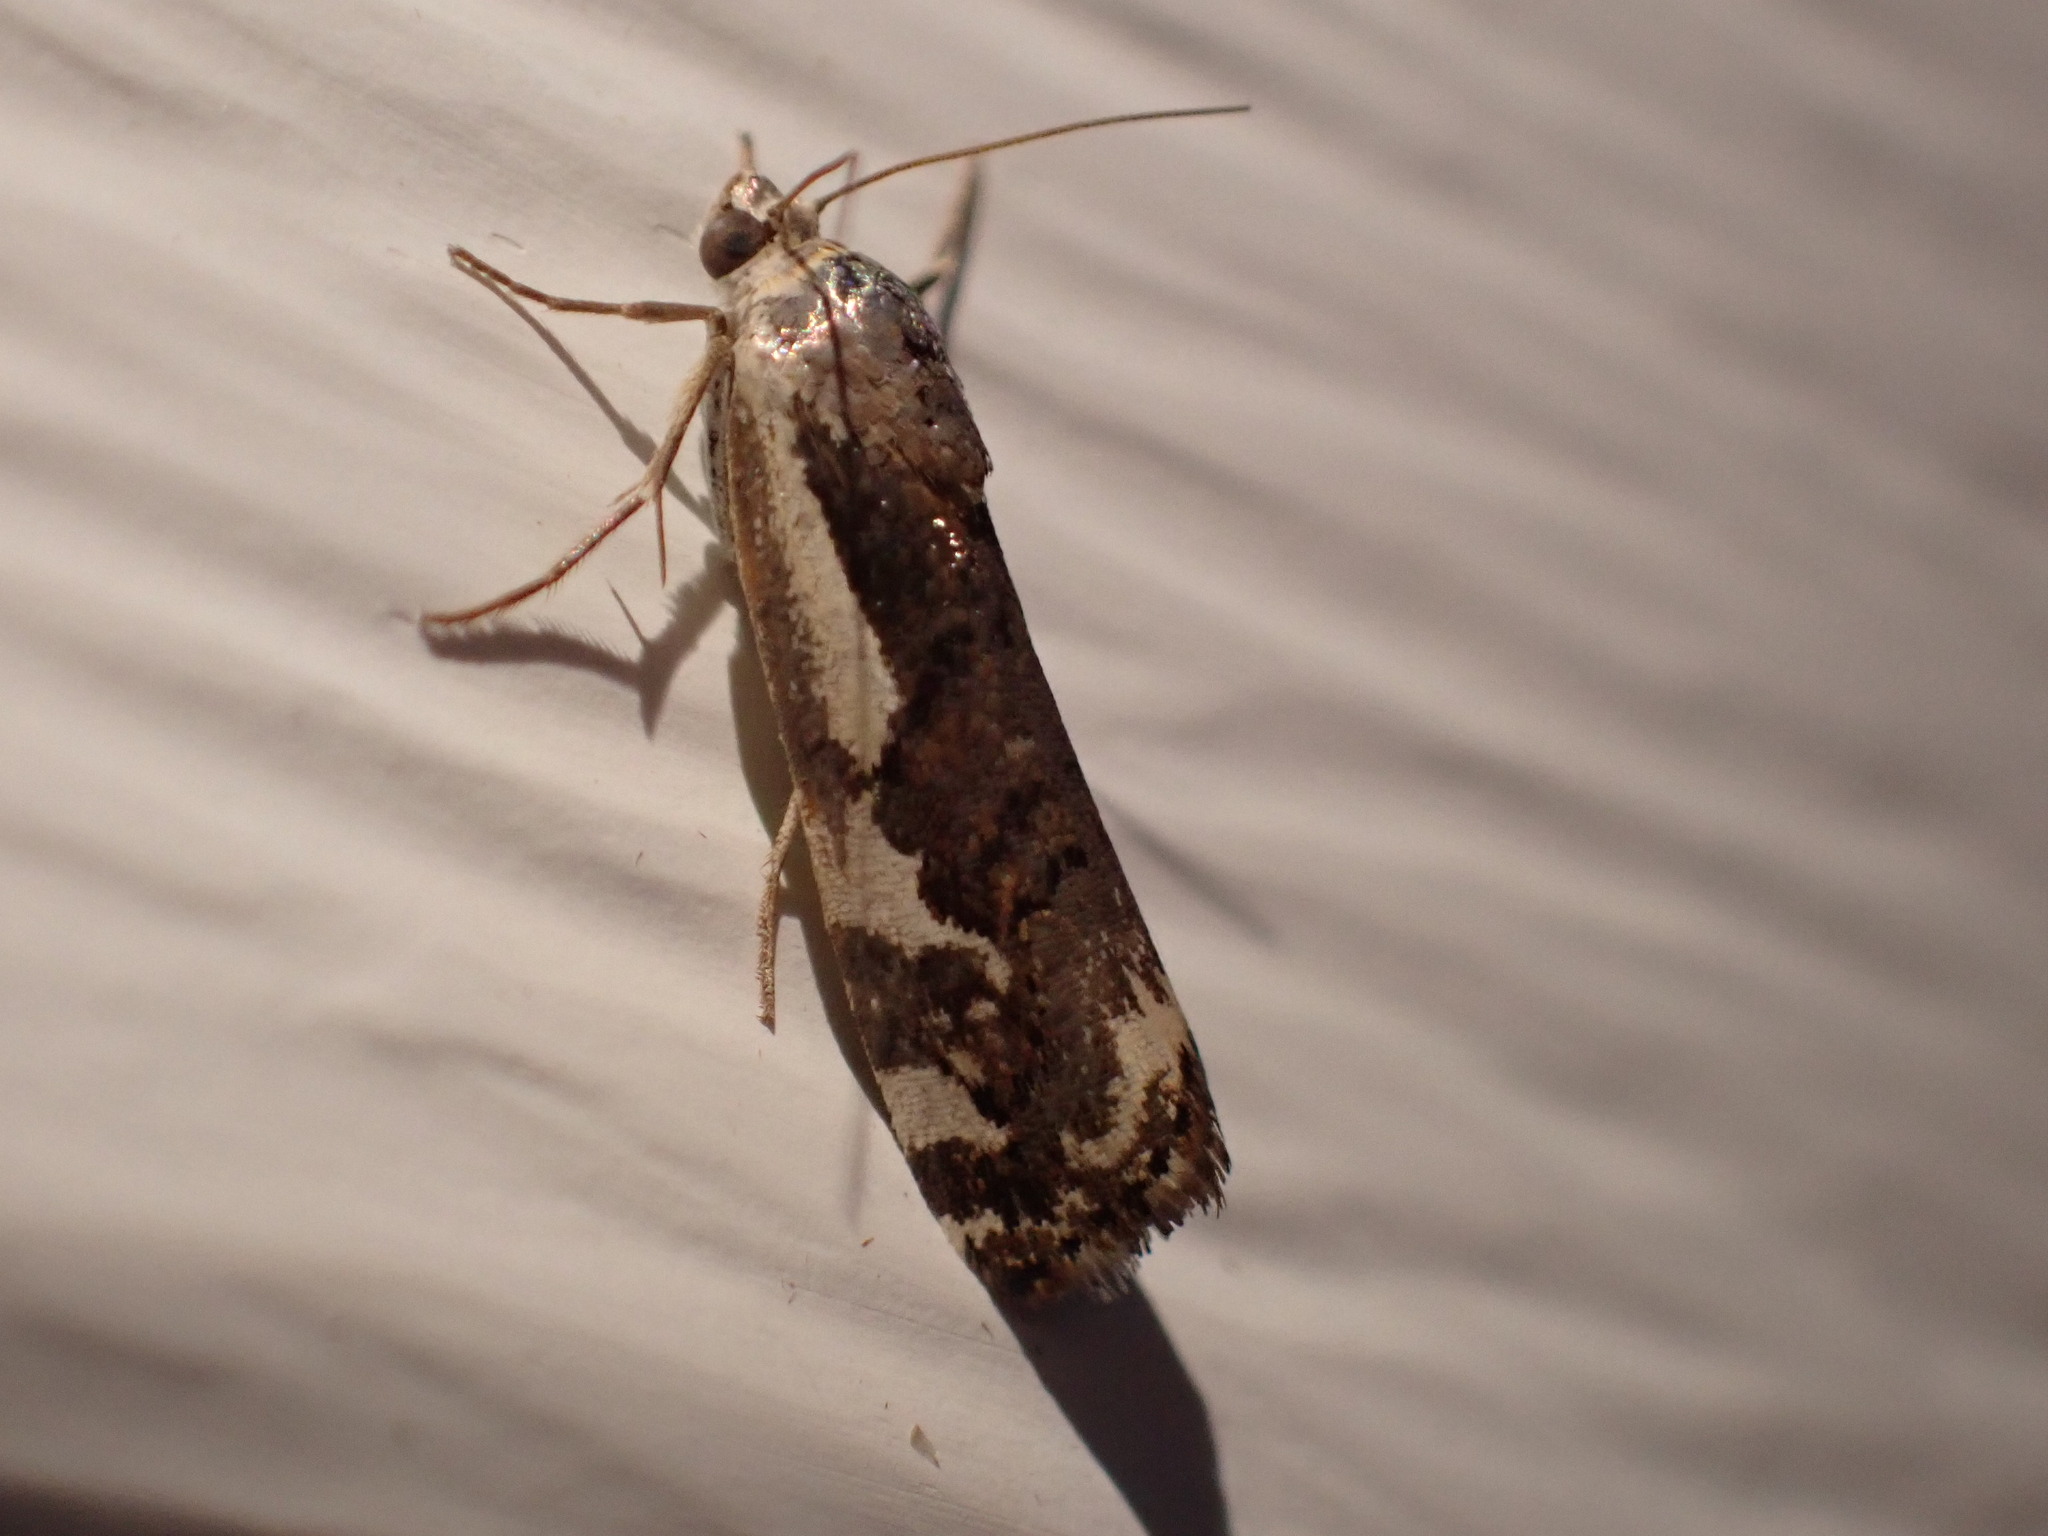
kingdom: Animalia
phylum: Arthropoda
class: Insecta
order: Lepidoptera
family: Noctuidae
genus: Acontia
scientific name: Acontia Tarache augustipennis
